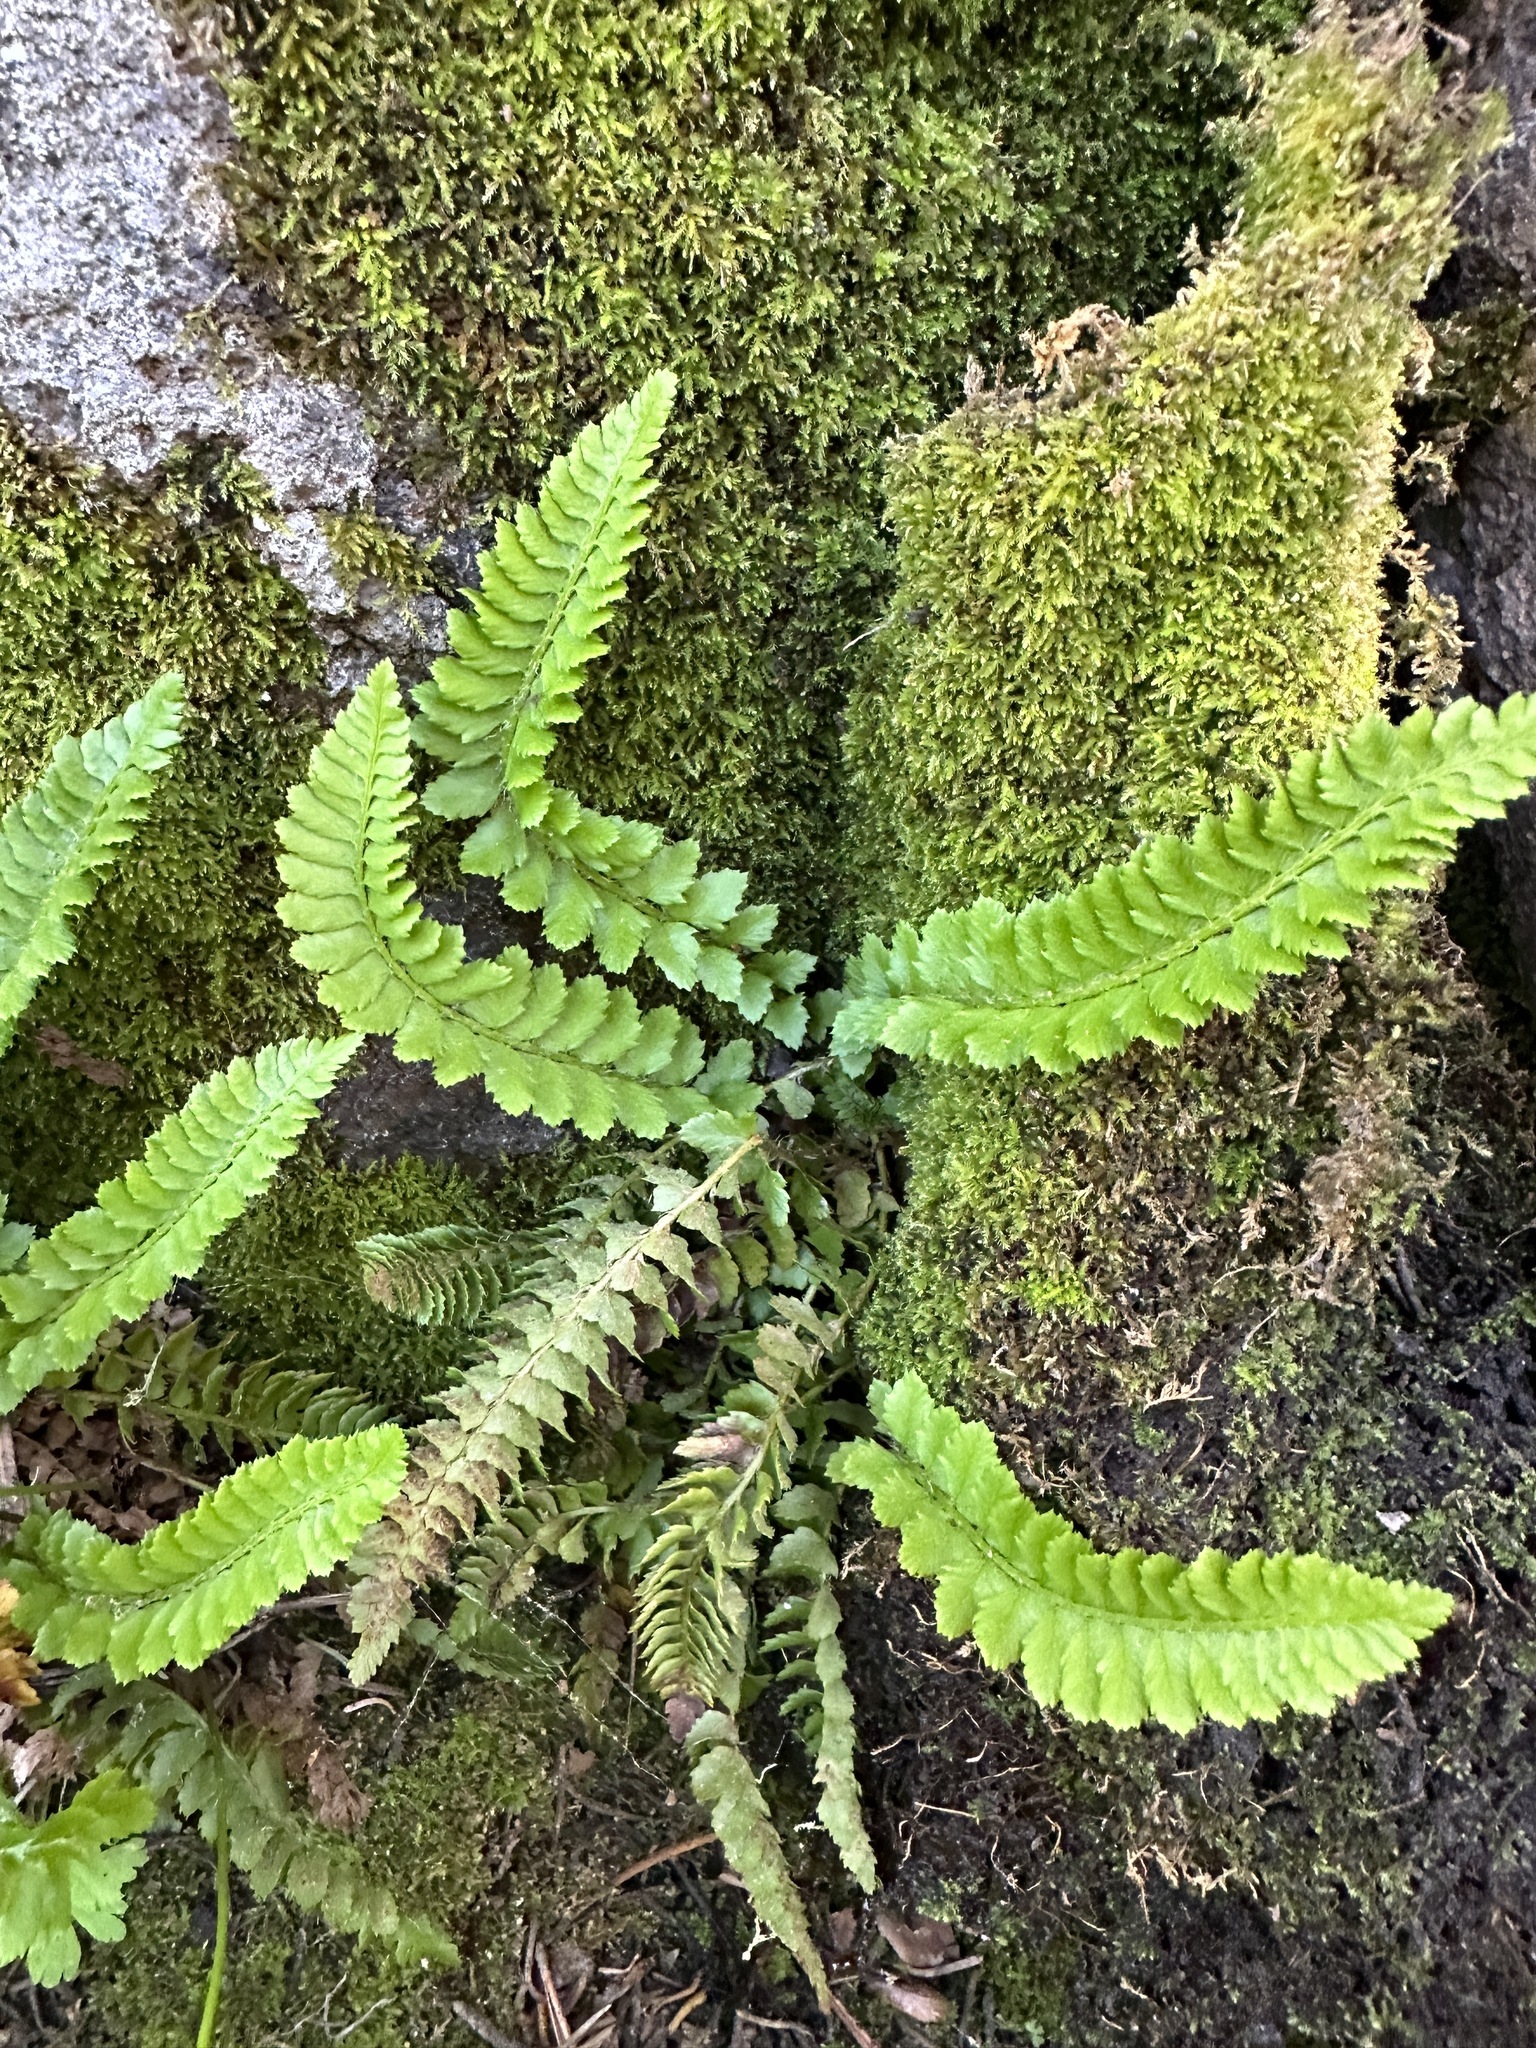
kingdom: Plantae
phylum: Tracheophyta
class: Polypodiopsida
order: Polypodiales
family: Dryopteridaceae
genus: Polystichum
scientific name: Polystichum kruckebergii
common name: Kruckeberg's holly fern
